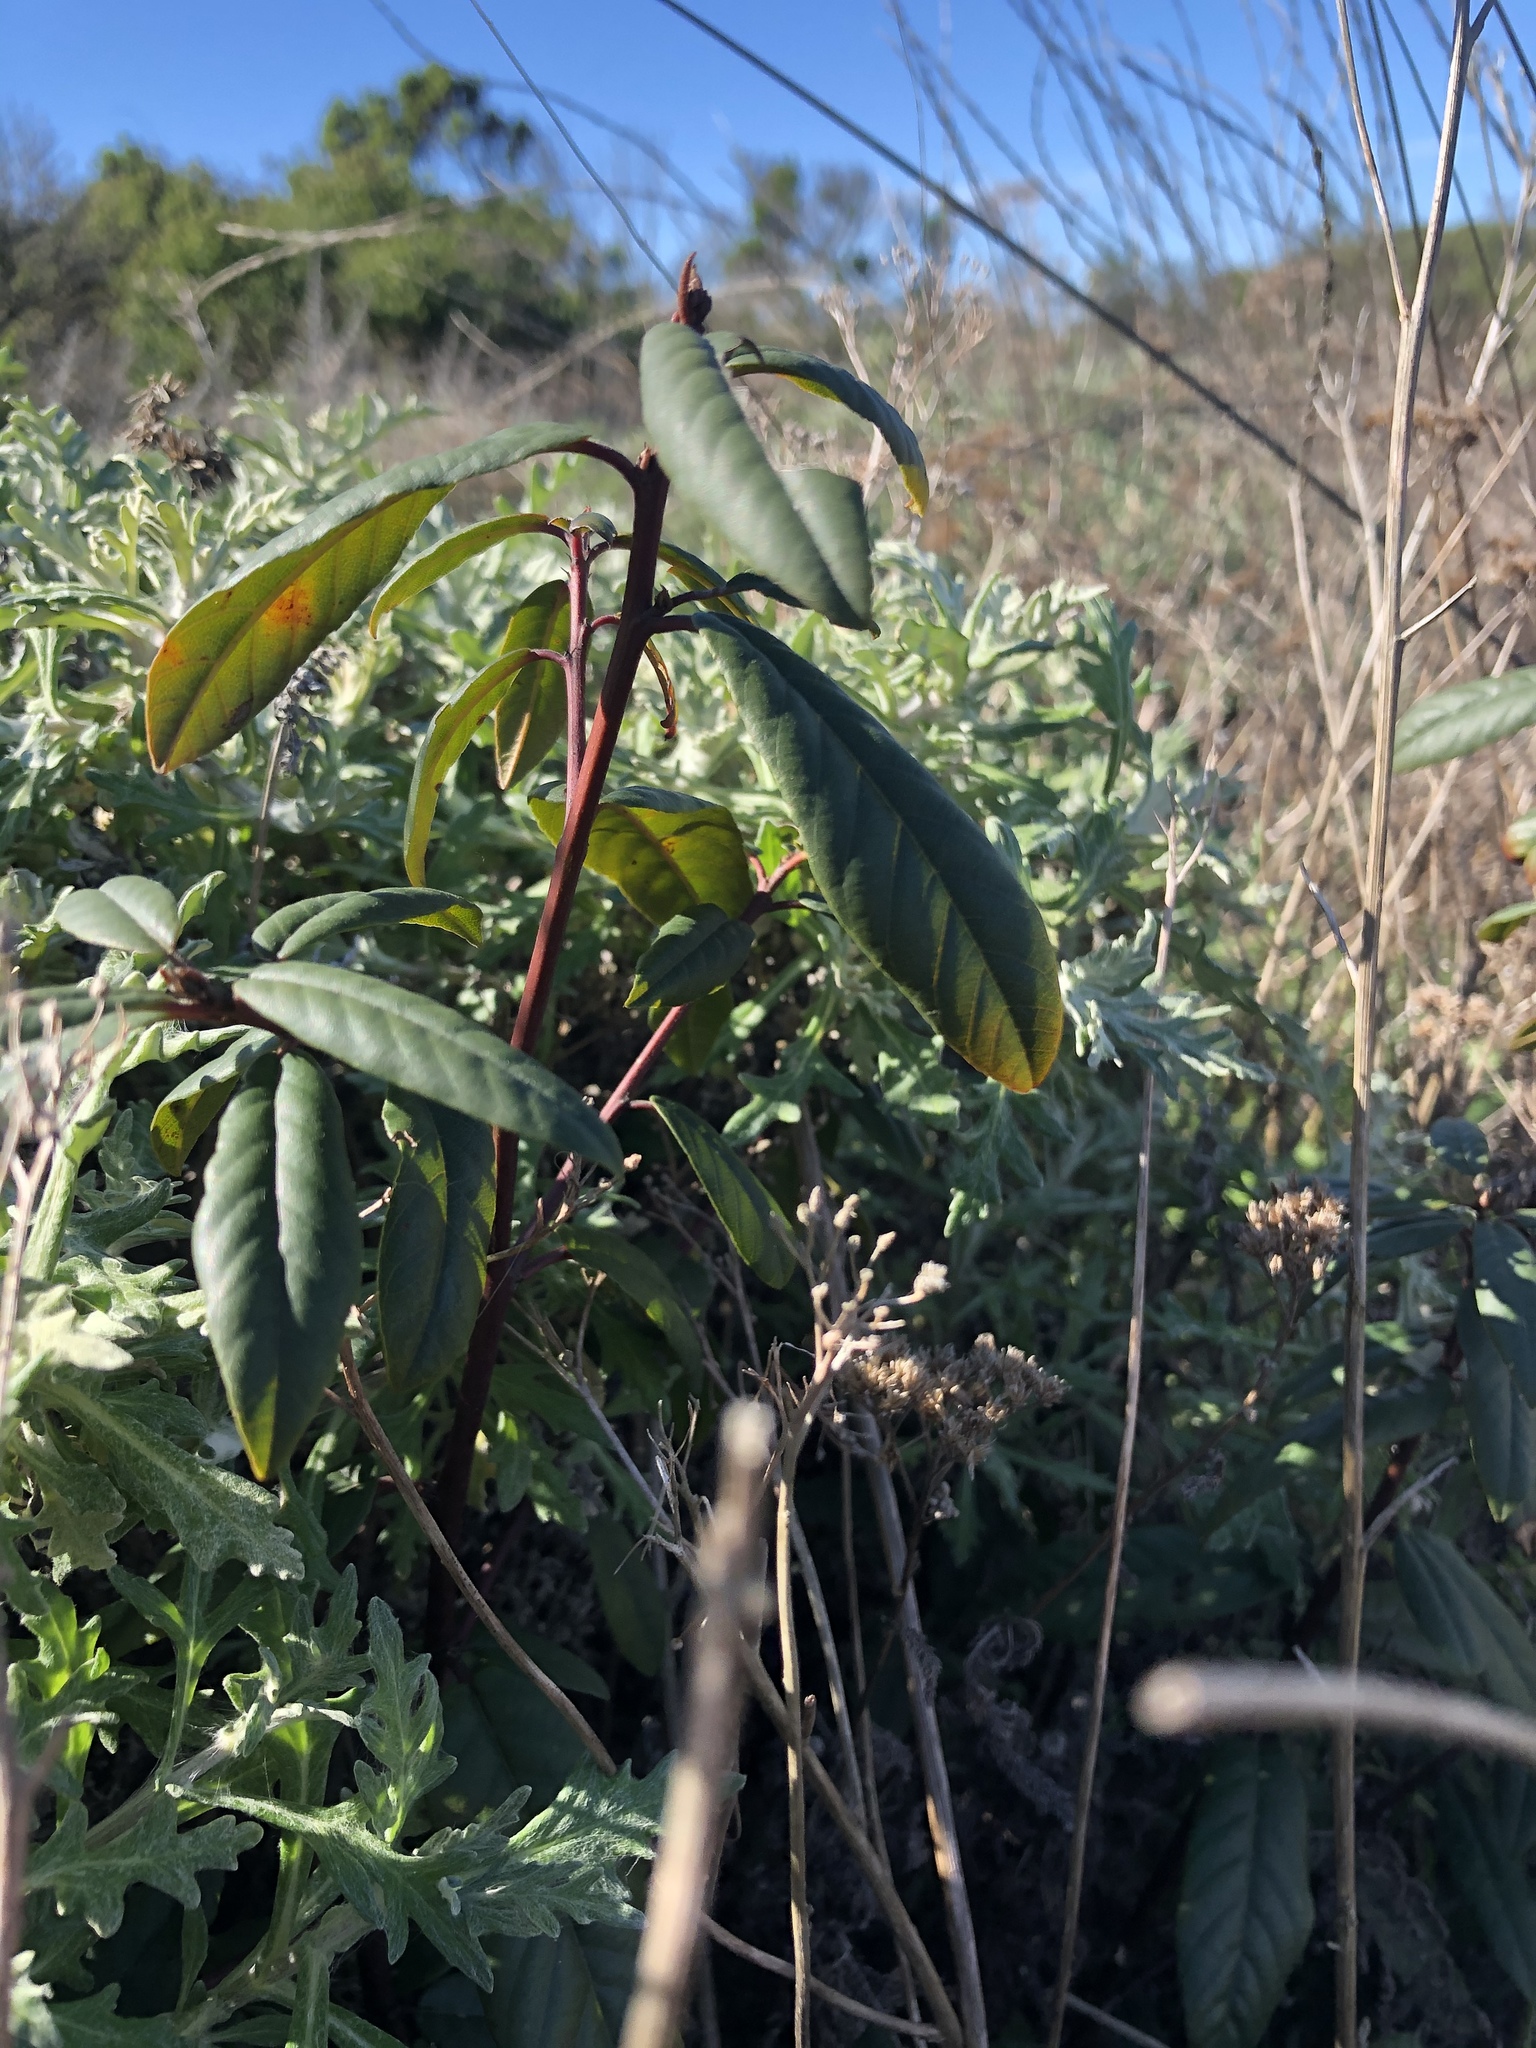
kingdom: Plantae
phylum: Tracheophyta
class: Magnoliopsida
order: Rosales
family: Rhamnaceae
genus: Frangula
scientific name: Frangula californica
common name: California buckthorn
